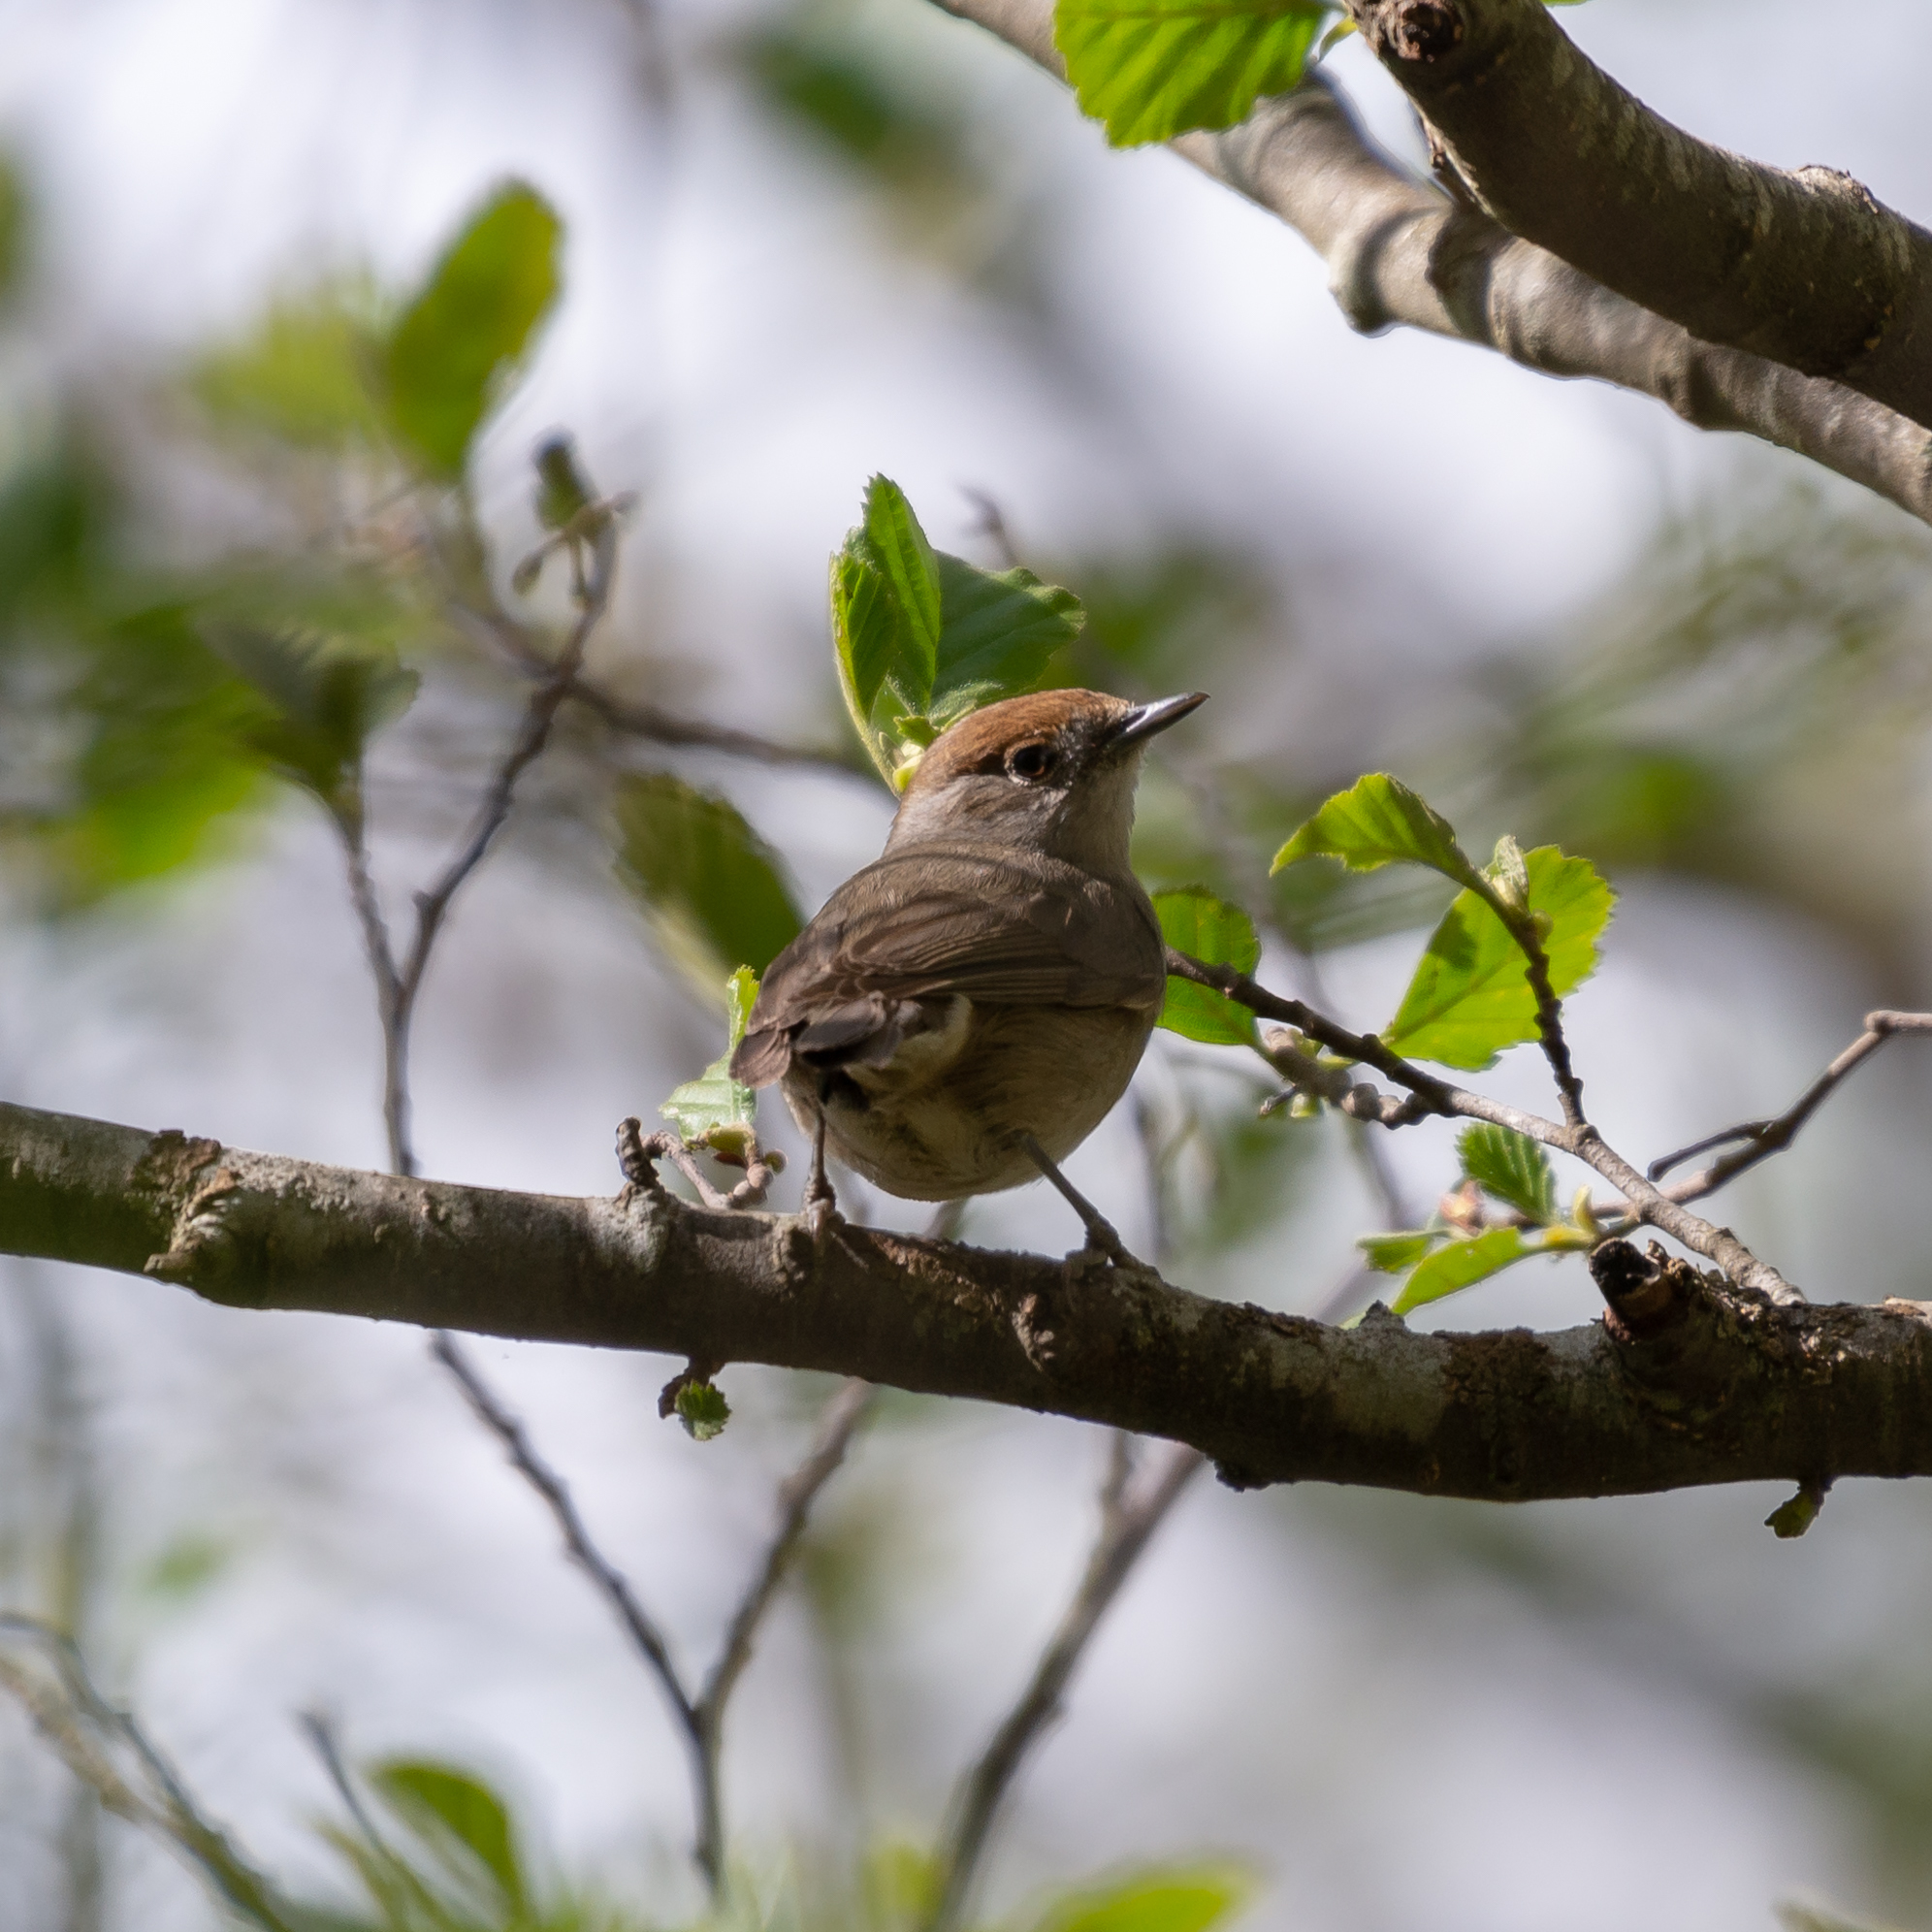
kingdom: Animalia
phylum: Chordata
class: Aves
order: Passeriformes
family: Sylviidae
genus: Sylvia
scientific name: Sylvia atricapilla
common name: Eurasian blackcap
